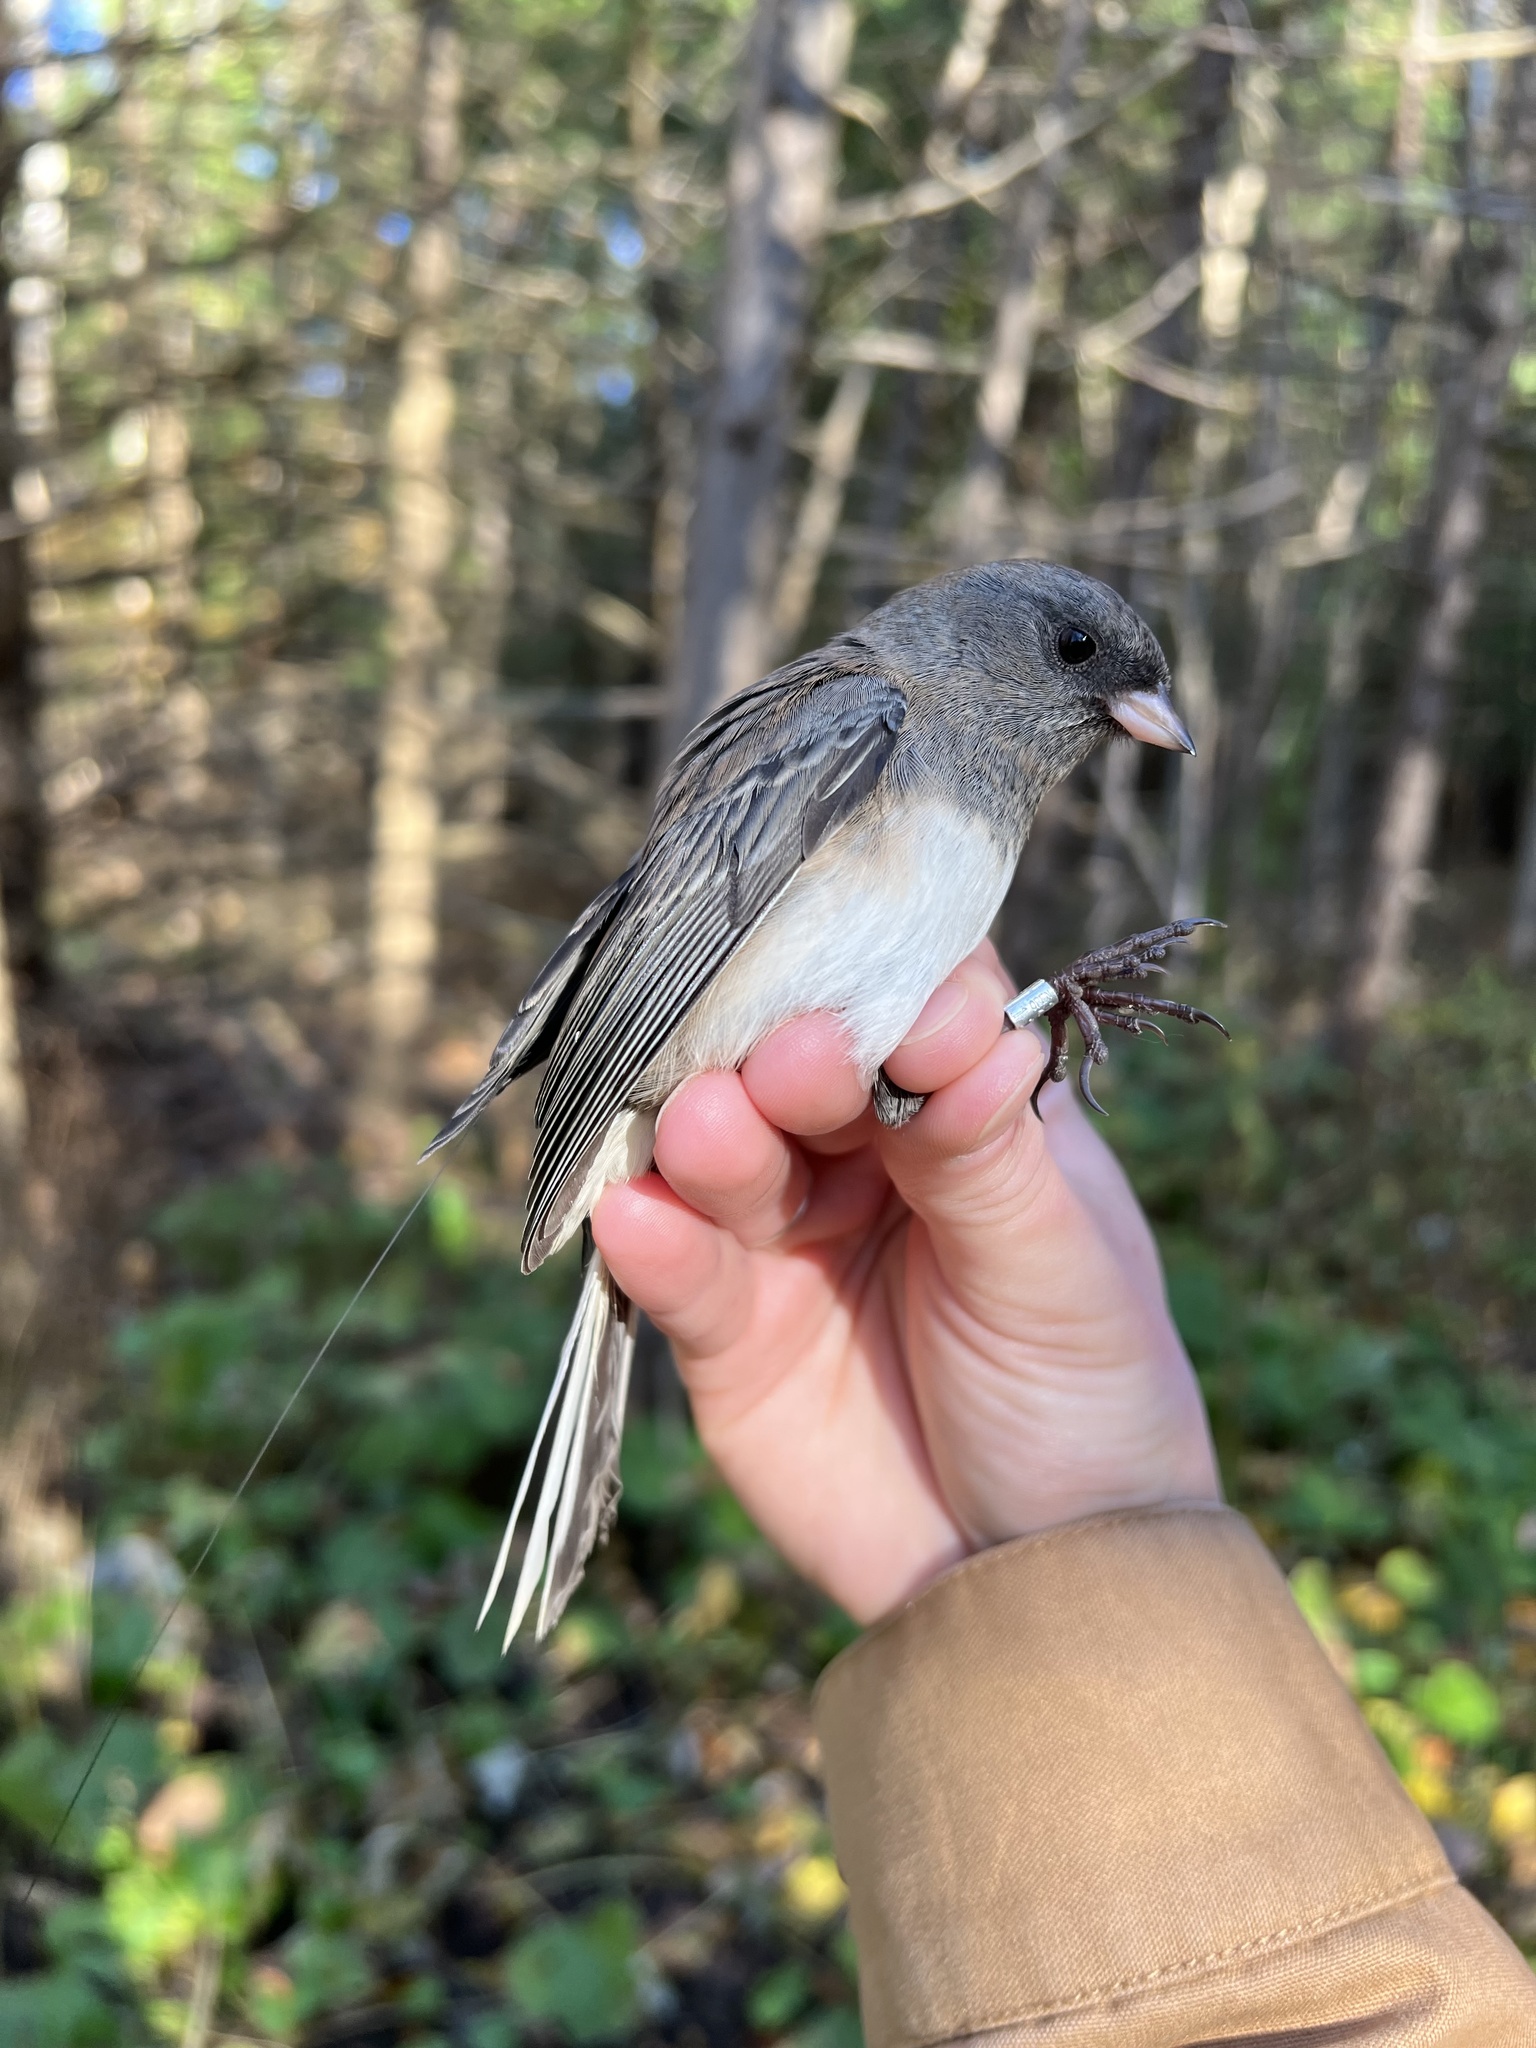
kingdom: Animalia
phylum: Chordata
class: Aves
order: Passeriformes
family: Passerellidae
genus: Junco
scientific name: Junco hyemalis
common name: Dark-eyed junco
